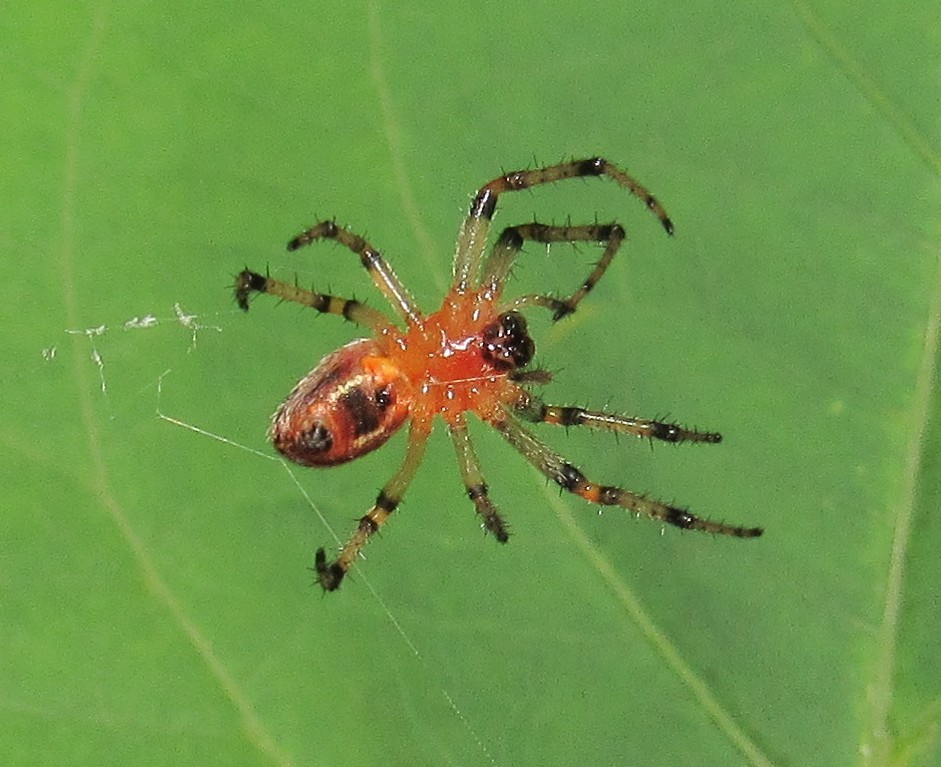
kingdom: Animalia
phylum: Arthropoda
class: Arachnida
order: Araneae
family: Araneidae
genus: Alpaida
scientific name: Alpaida veniliae
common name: Orb weavers
